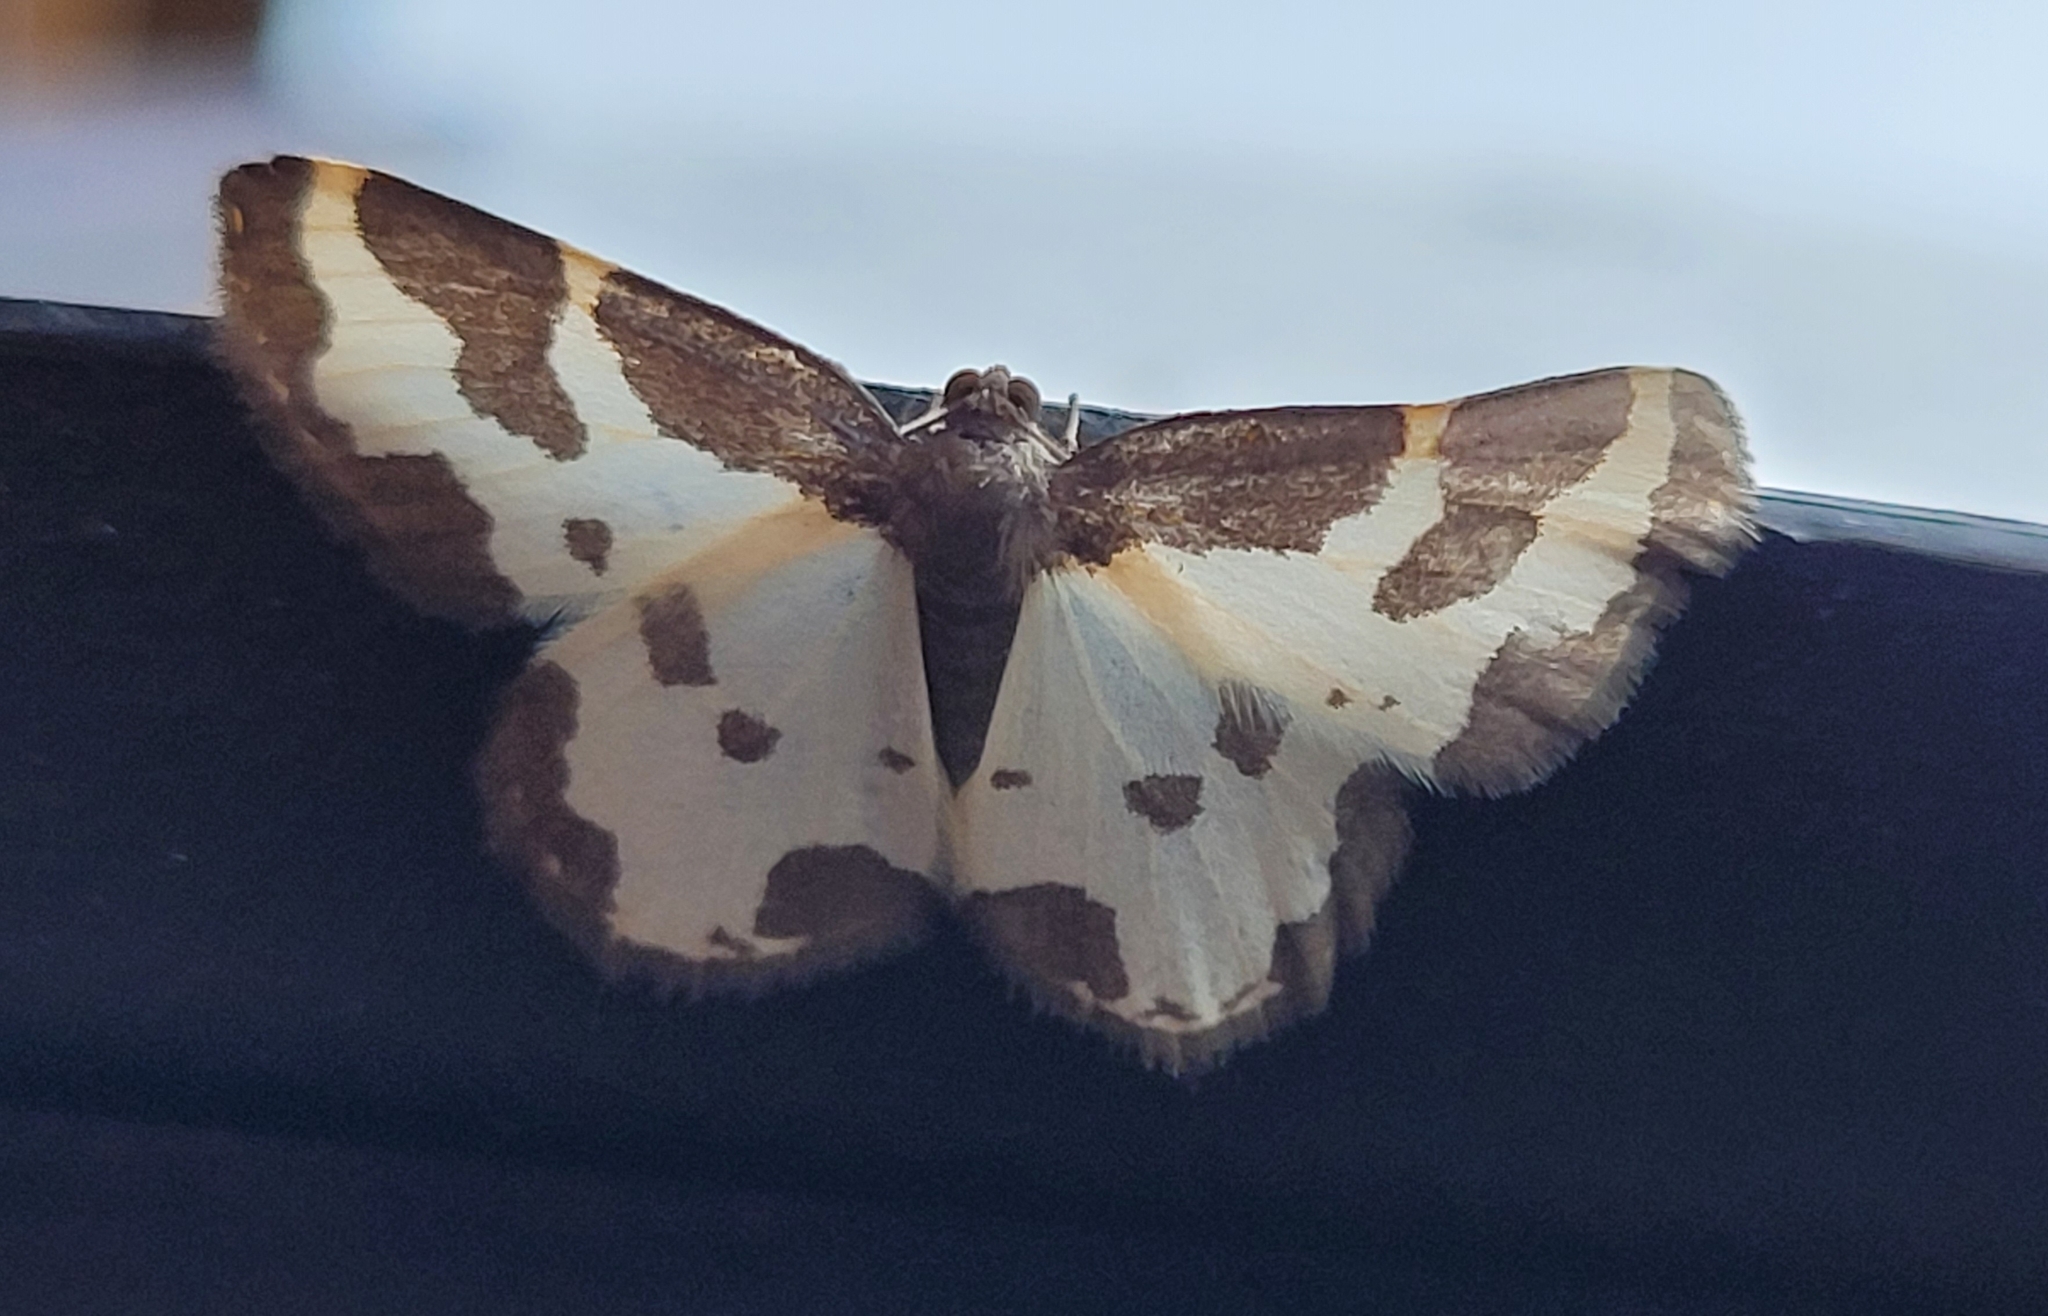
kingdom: Animalia
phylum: Arthropoda
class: Insecta
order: Lepidoptera
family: Geometridae
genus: Lomaspilis
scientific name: Lomaspilis marginata
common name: Clouded border
